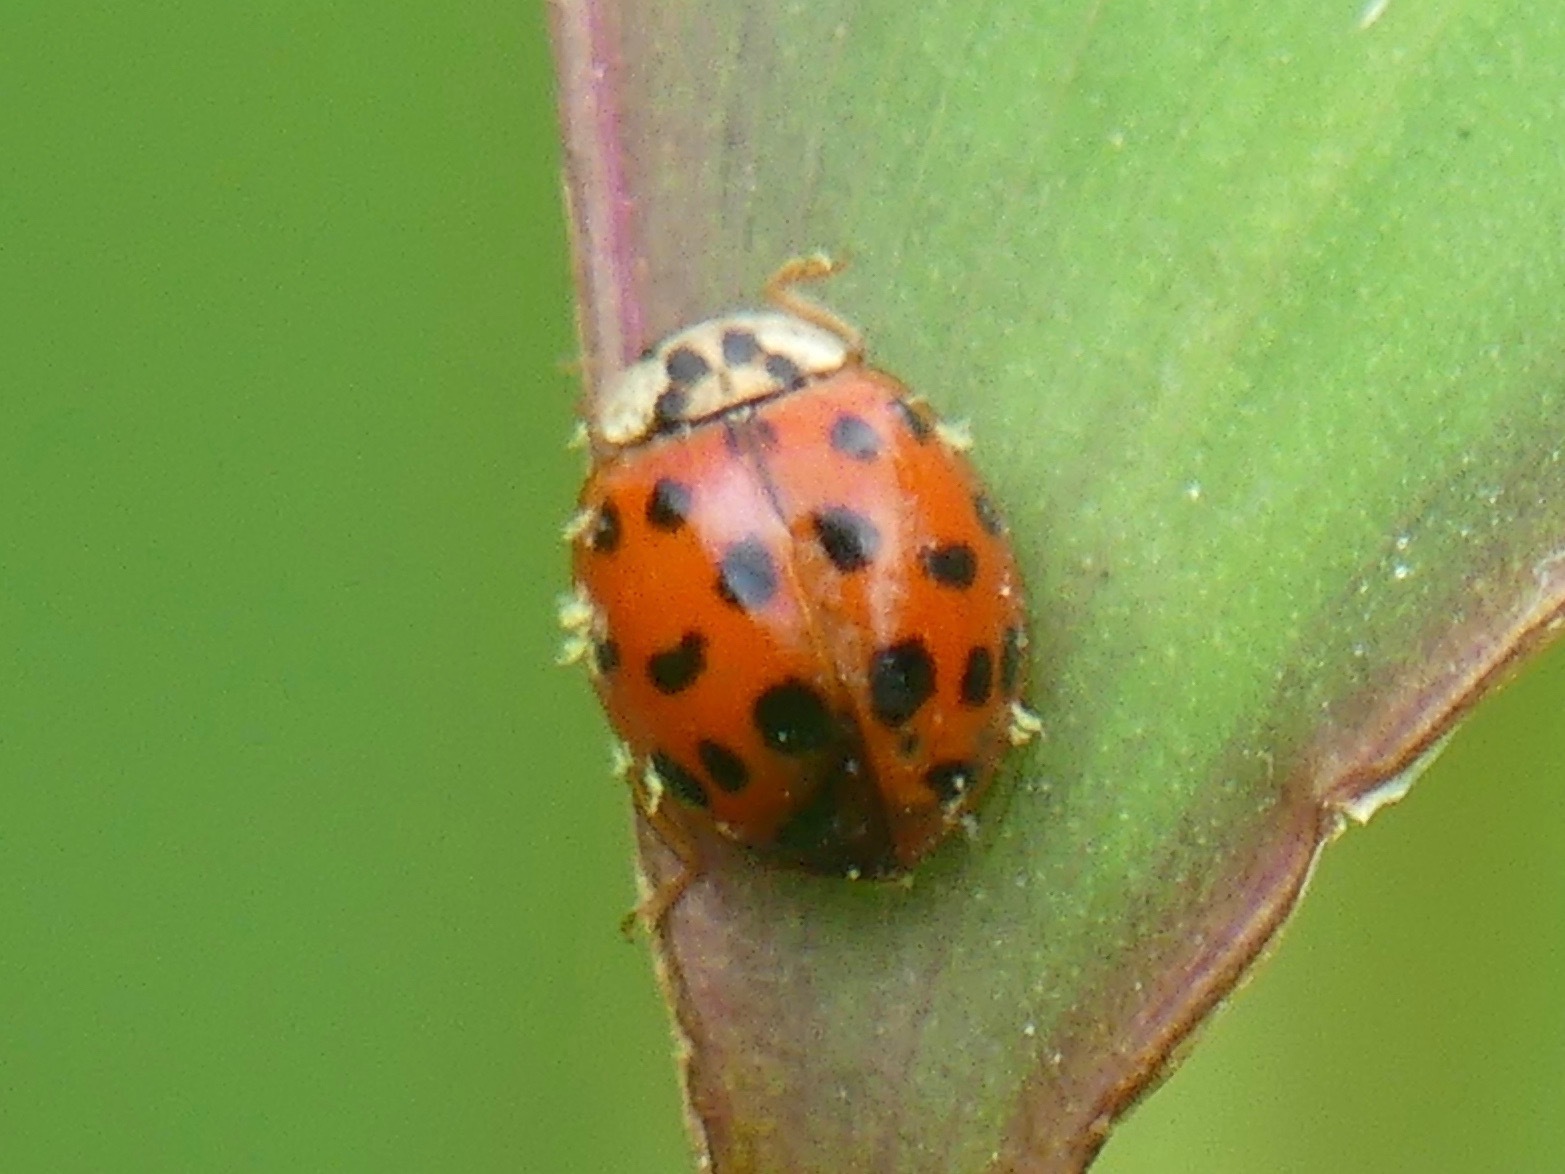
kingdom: Fungi
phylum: Ascomycota
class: Laboulbeniomycetes
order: Laboulbeniales
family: Laboulbeniaceae
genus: Hesperomyces
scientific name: Hesperomyces harmoniae
